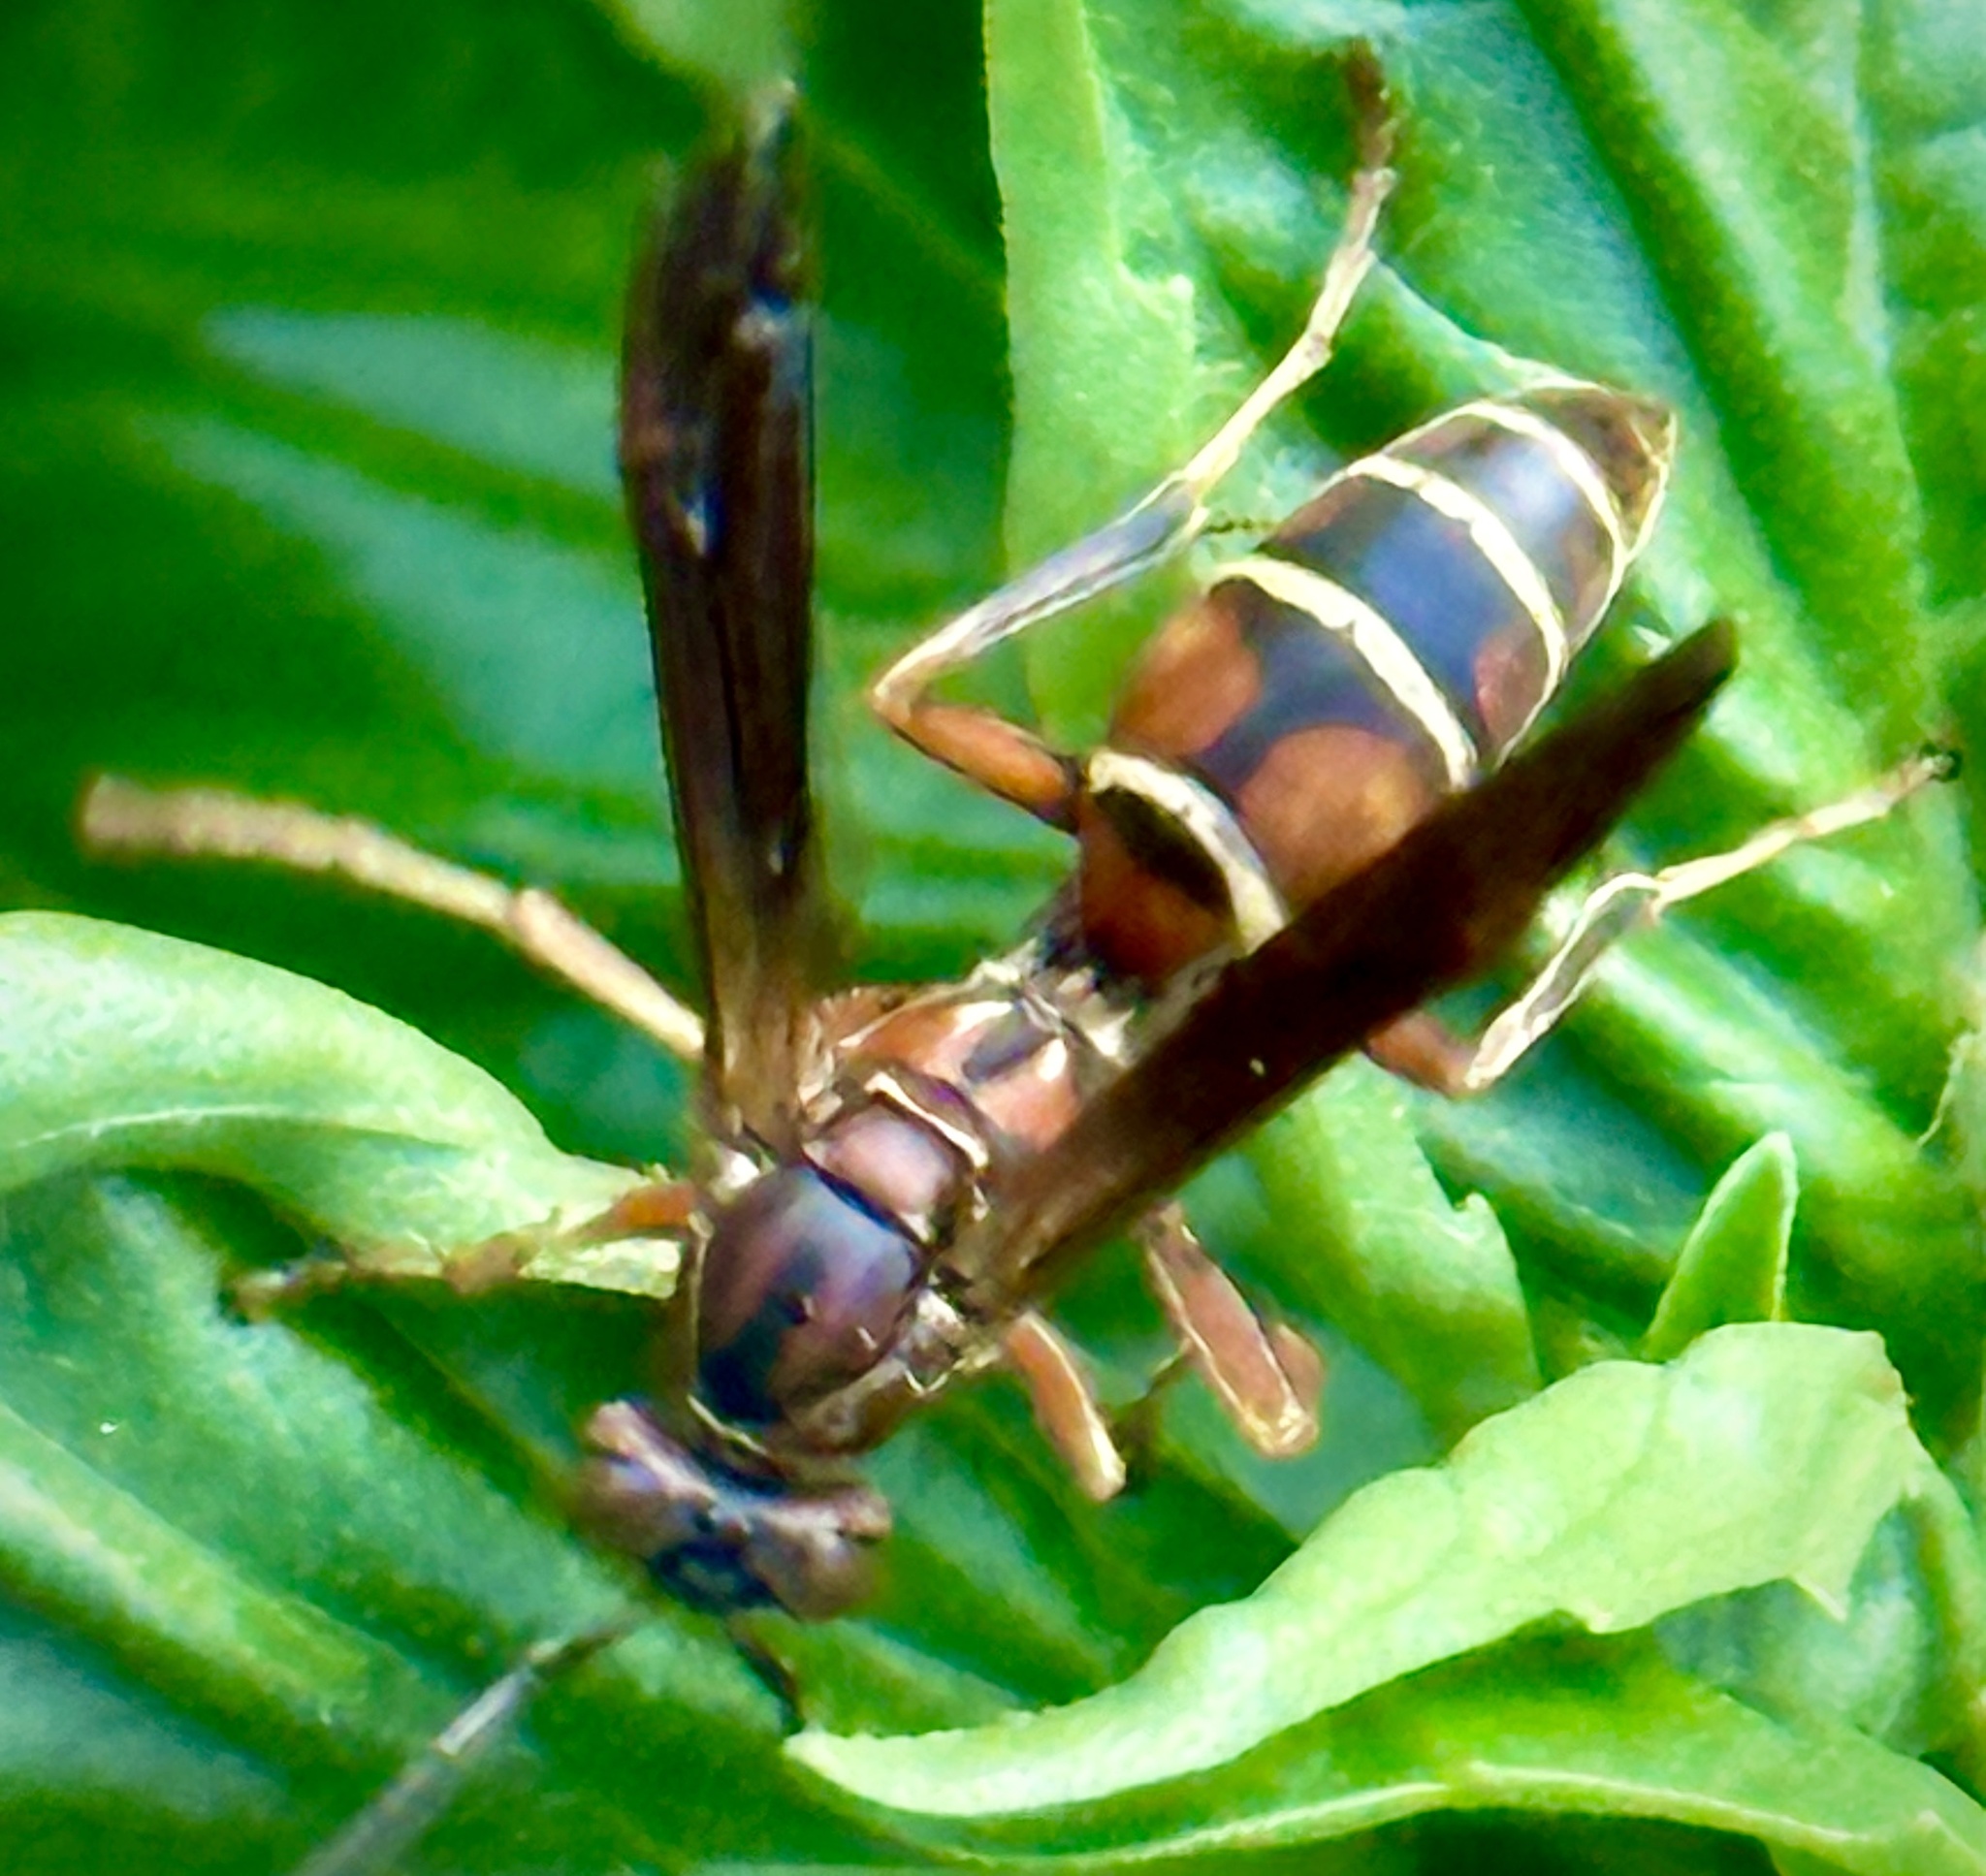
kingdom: Animalia
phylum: Arthropoda
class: Insecta
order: Hymenoptera
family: Eumenidae
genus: Polistes
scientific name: Polistes fuscatus
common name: Dark paper wasp
